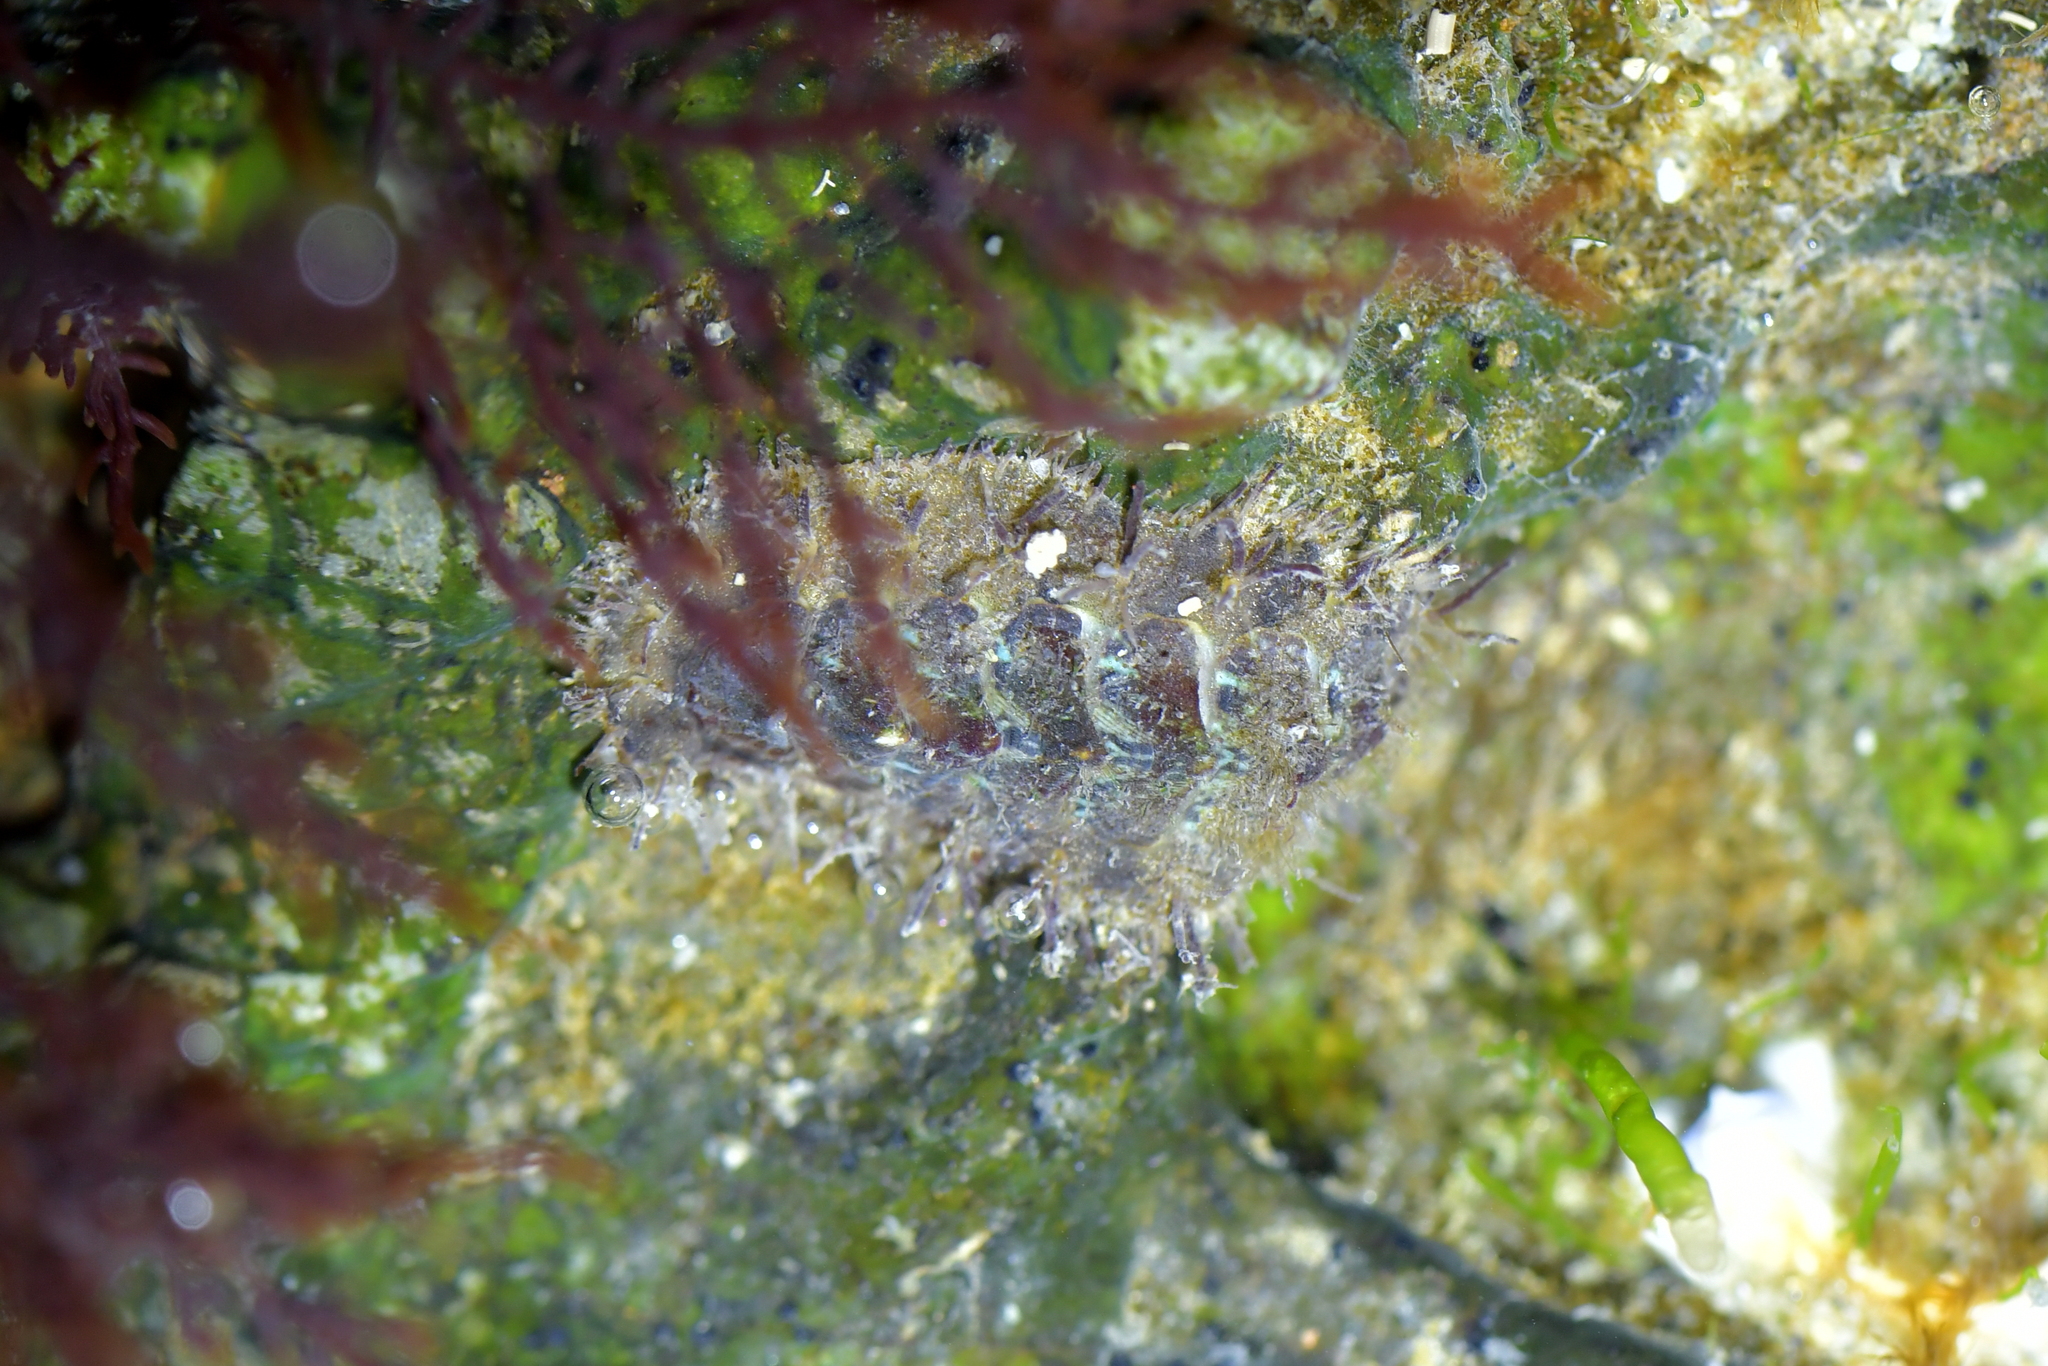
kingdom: Animalia
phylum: Mollusca
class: Polyplacophora
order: Chitonida
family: Acanthochitonidae
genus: Acanthochitona
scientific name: Acanthochitona zelandica
